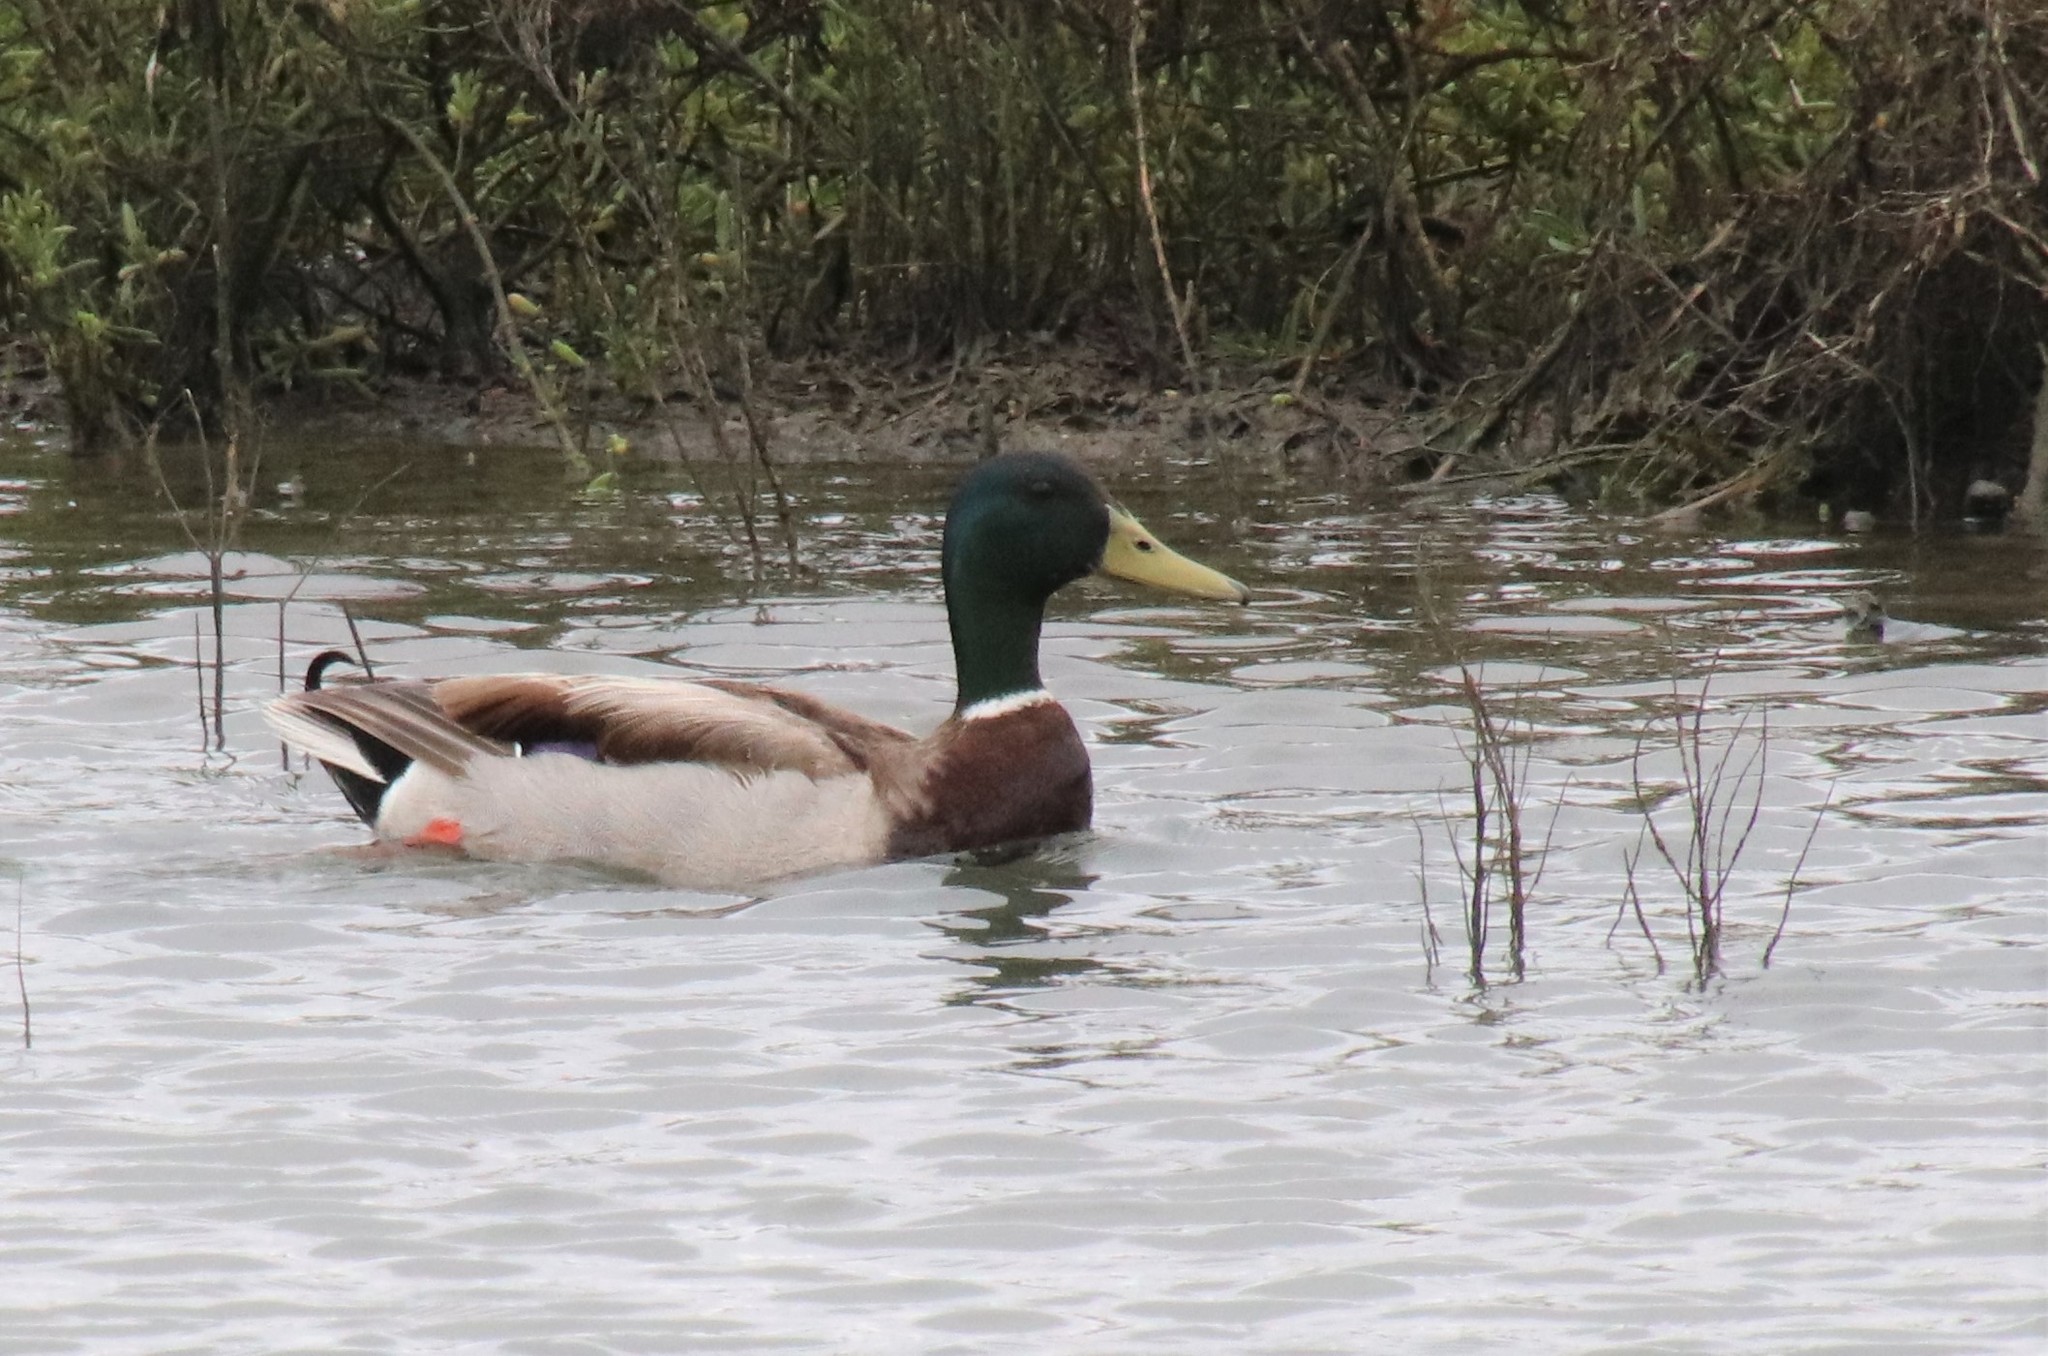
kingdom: Animalia
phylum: Chordata
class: Aves
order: Anseriformes
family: Anatidae
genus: Anas
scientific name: Anas platyrhynchos
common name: Mallard
